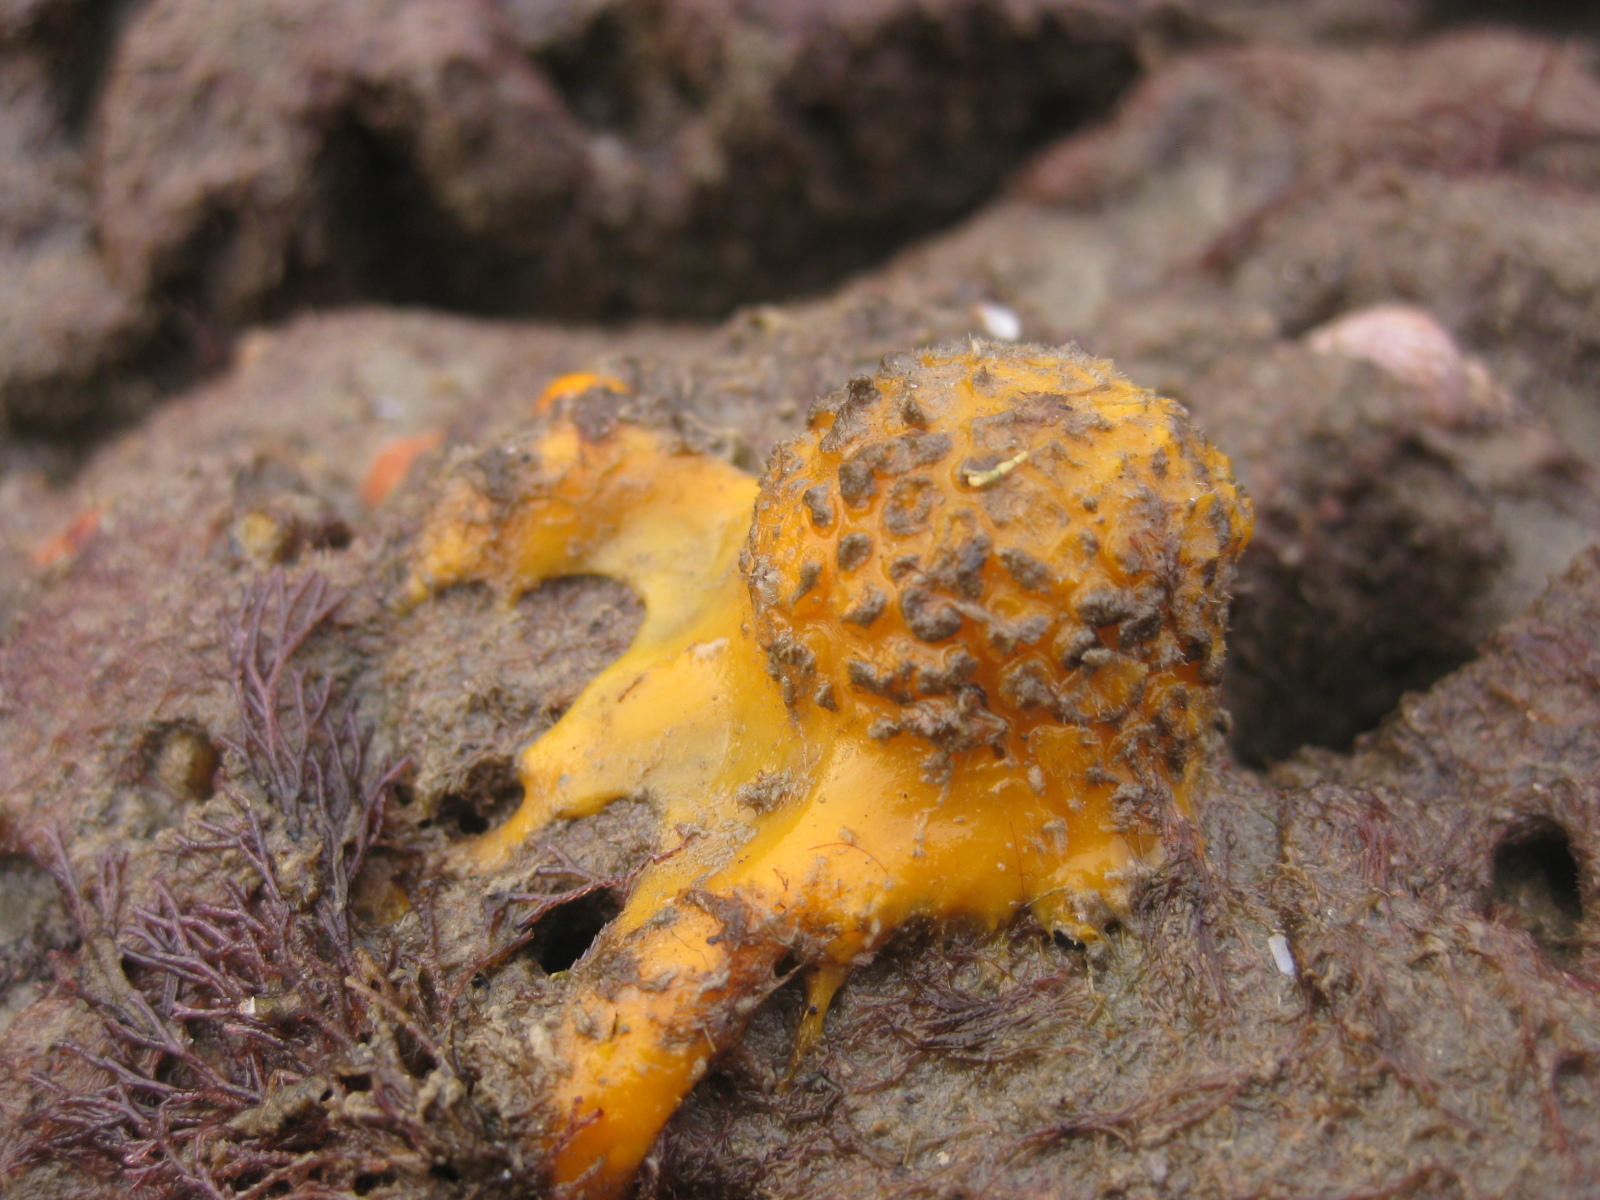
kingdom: Animalia
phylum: Porifera
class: Demospongiae
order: Tethyida
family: Tethyidae
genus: Tethya
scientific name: Tethya burtoni
